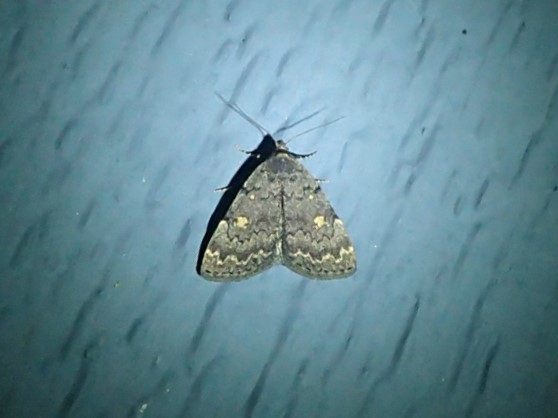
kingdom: Animalia
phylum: Arthropoda
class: Insecta
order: Lepidoptera
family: Erebidae
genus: Idia
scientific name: Idia aemula
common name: Common idia moth
